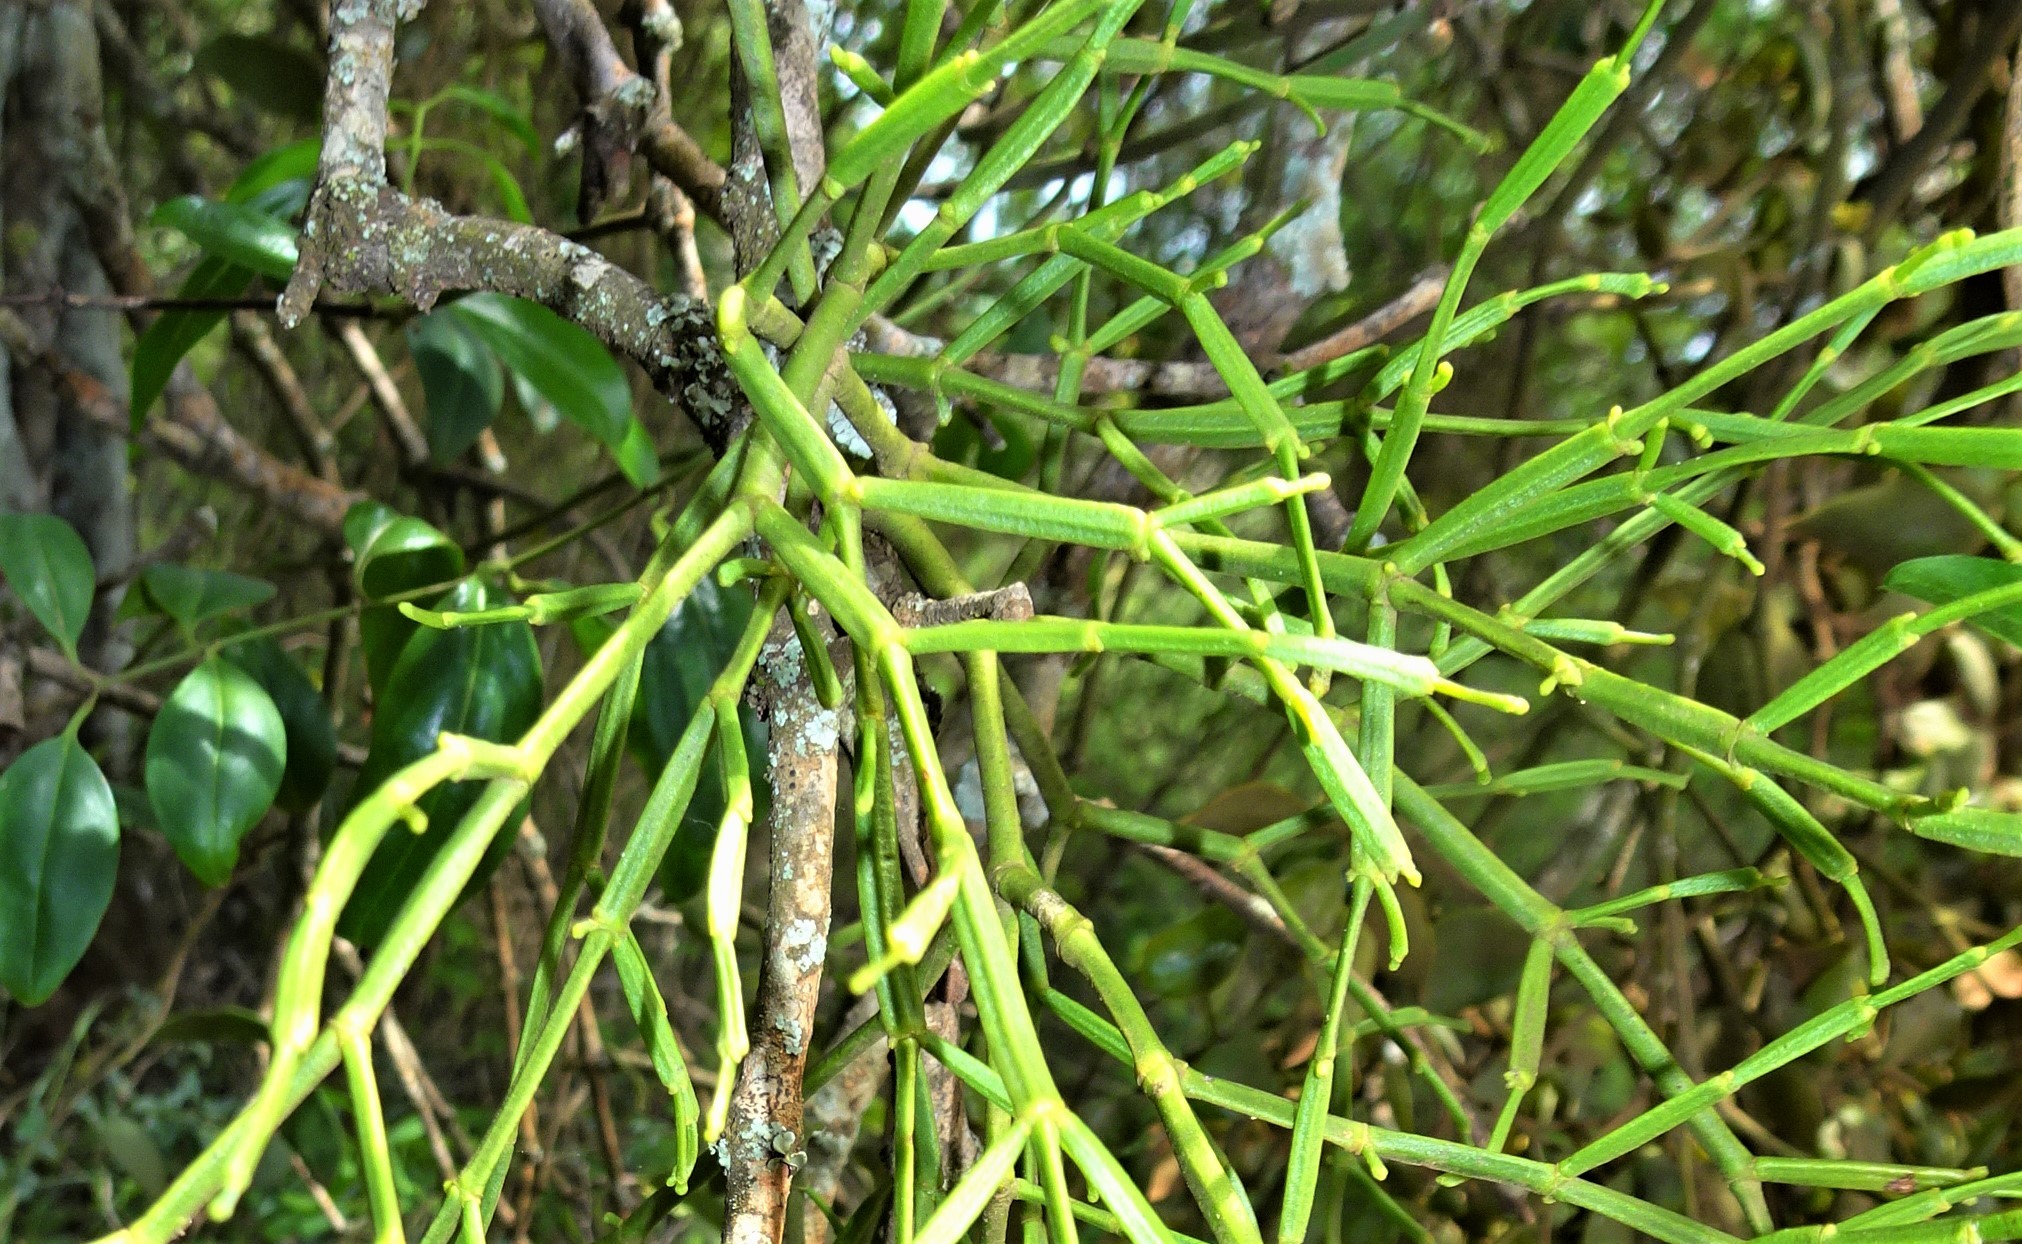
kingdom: Plantae
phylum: Tracheophyta
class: Magnoliopsida
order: Santalales
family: Viscaceae
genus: Viscum
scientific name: Viscum articulatum
